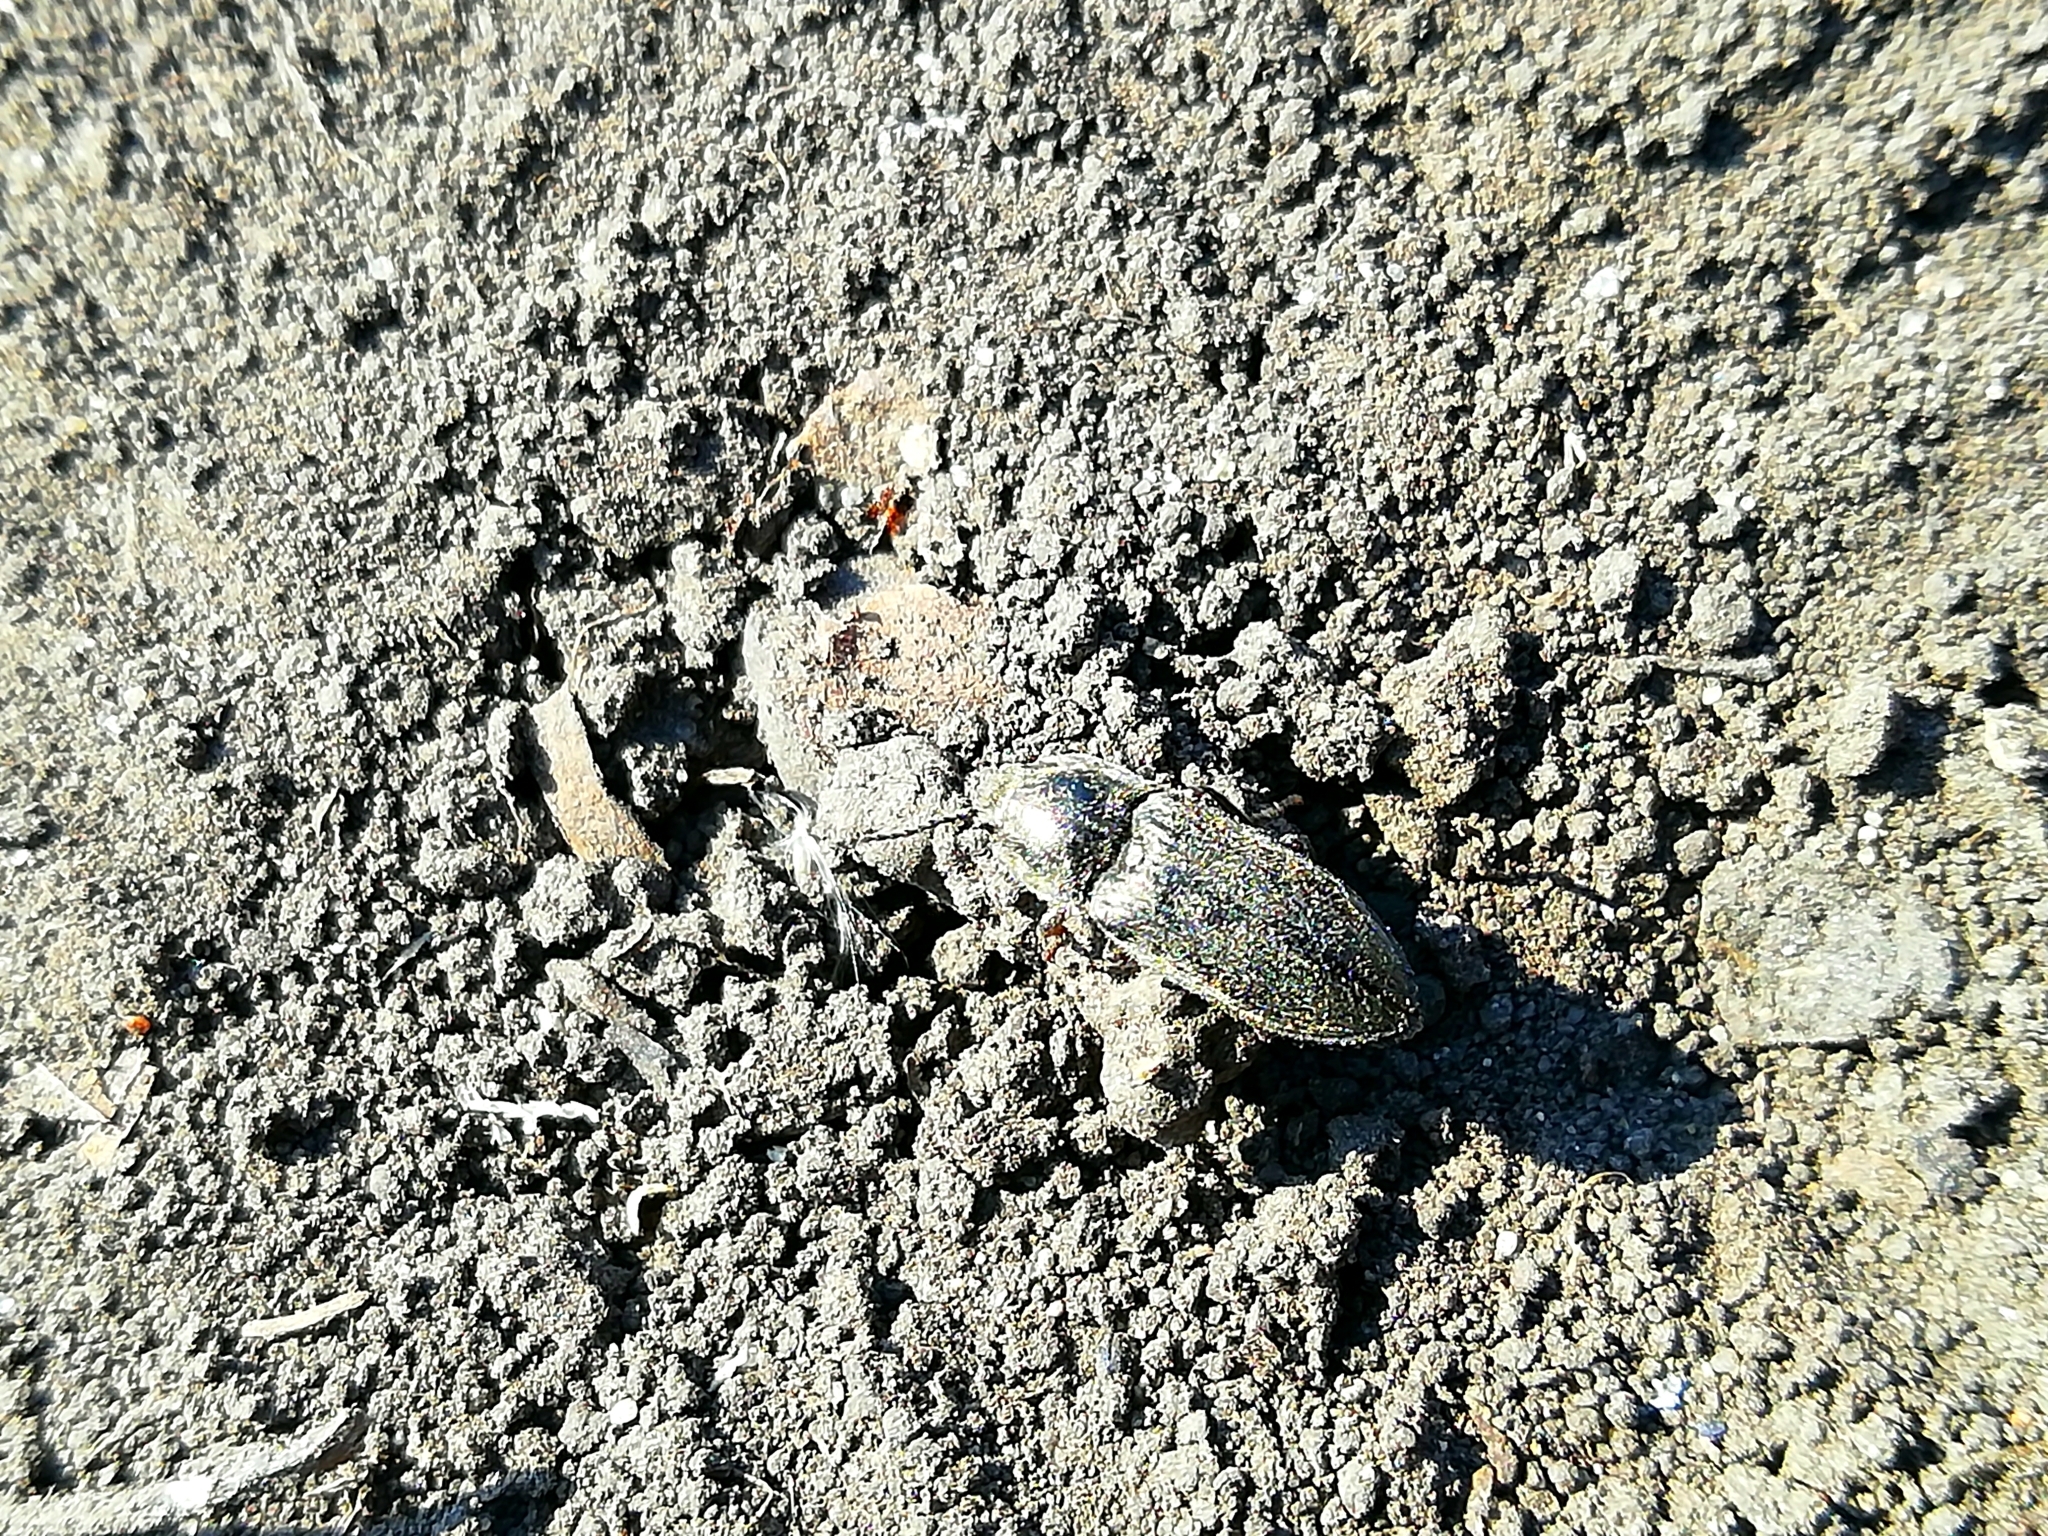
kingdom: Animalia
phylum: Arthropoda
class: Insecta
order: Coleoptera
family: Elateridae
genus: Selatosomus
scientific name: Selatosomus latus
